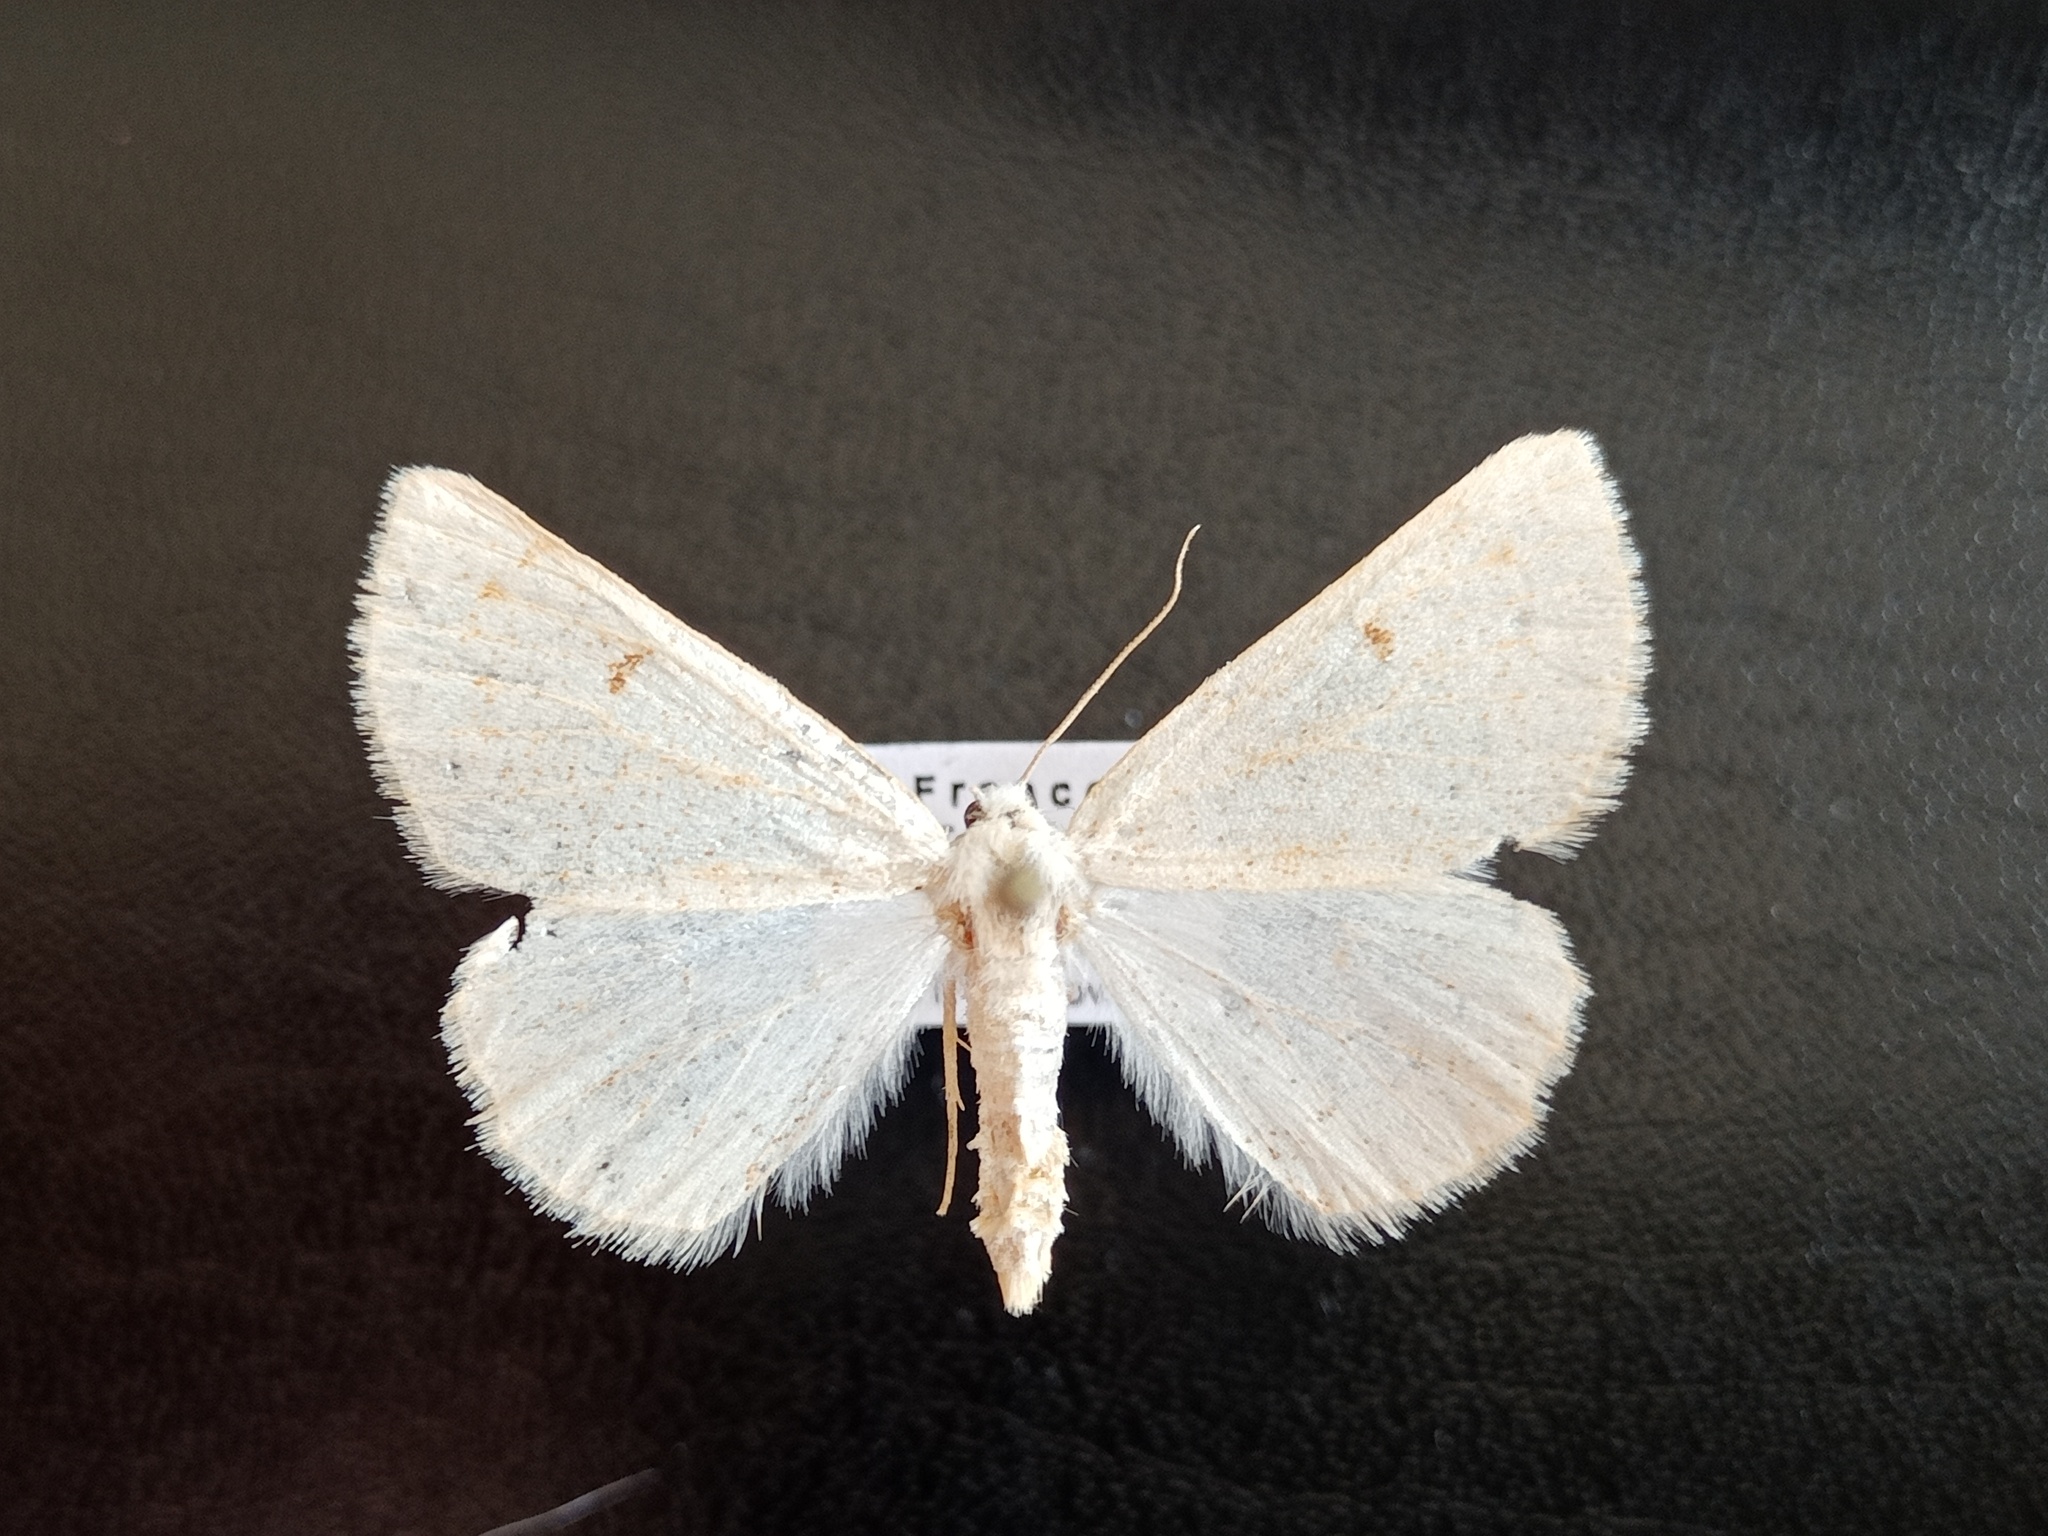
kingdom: Animalia
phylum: Arthropoda
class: Insecta
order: Lepidoptera
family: Geometridae
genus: Dyscia
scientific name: Dyscia penulataria
